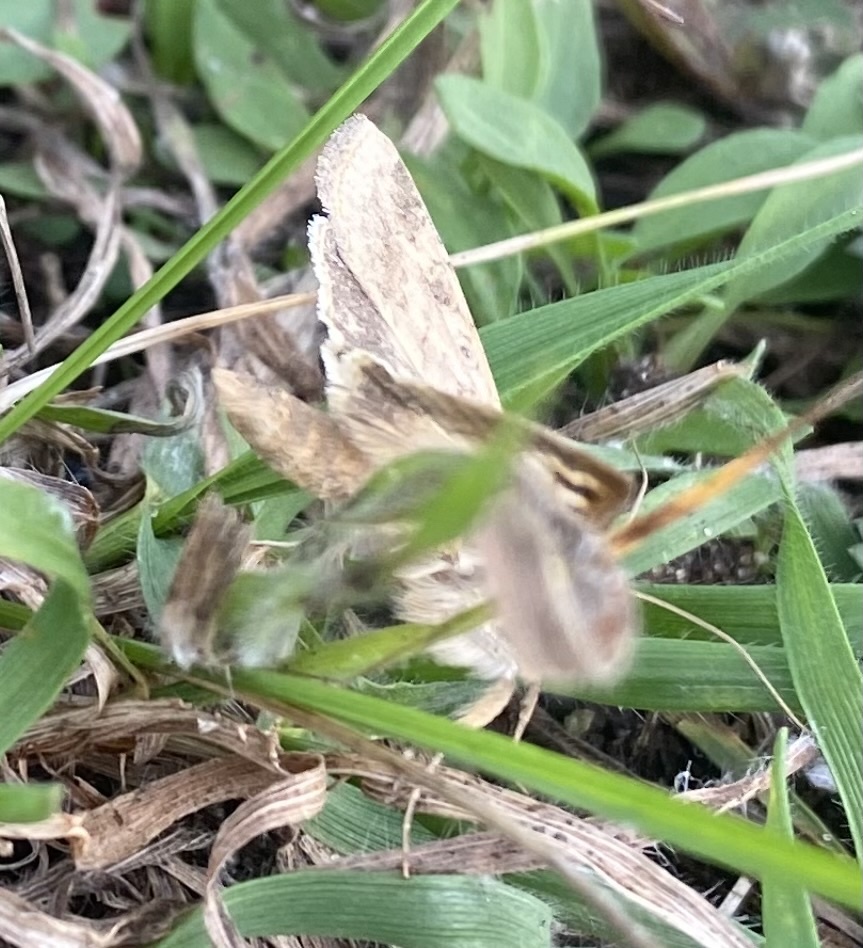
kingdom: Animalia
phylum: Arthropoda
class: Insecta
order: Lepidoptera
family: Noctuidae
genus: Helicoverpa
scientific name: Helicoverpa armigera
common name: Cotton bollworm
